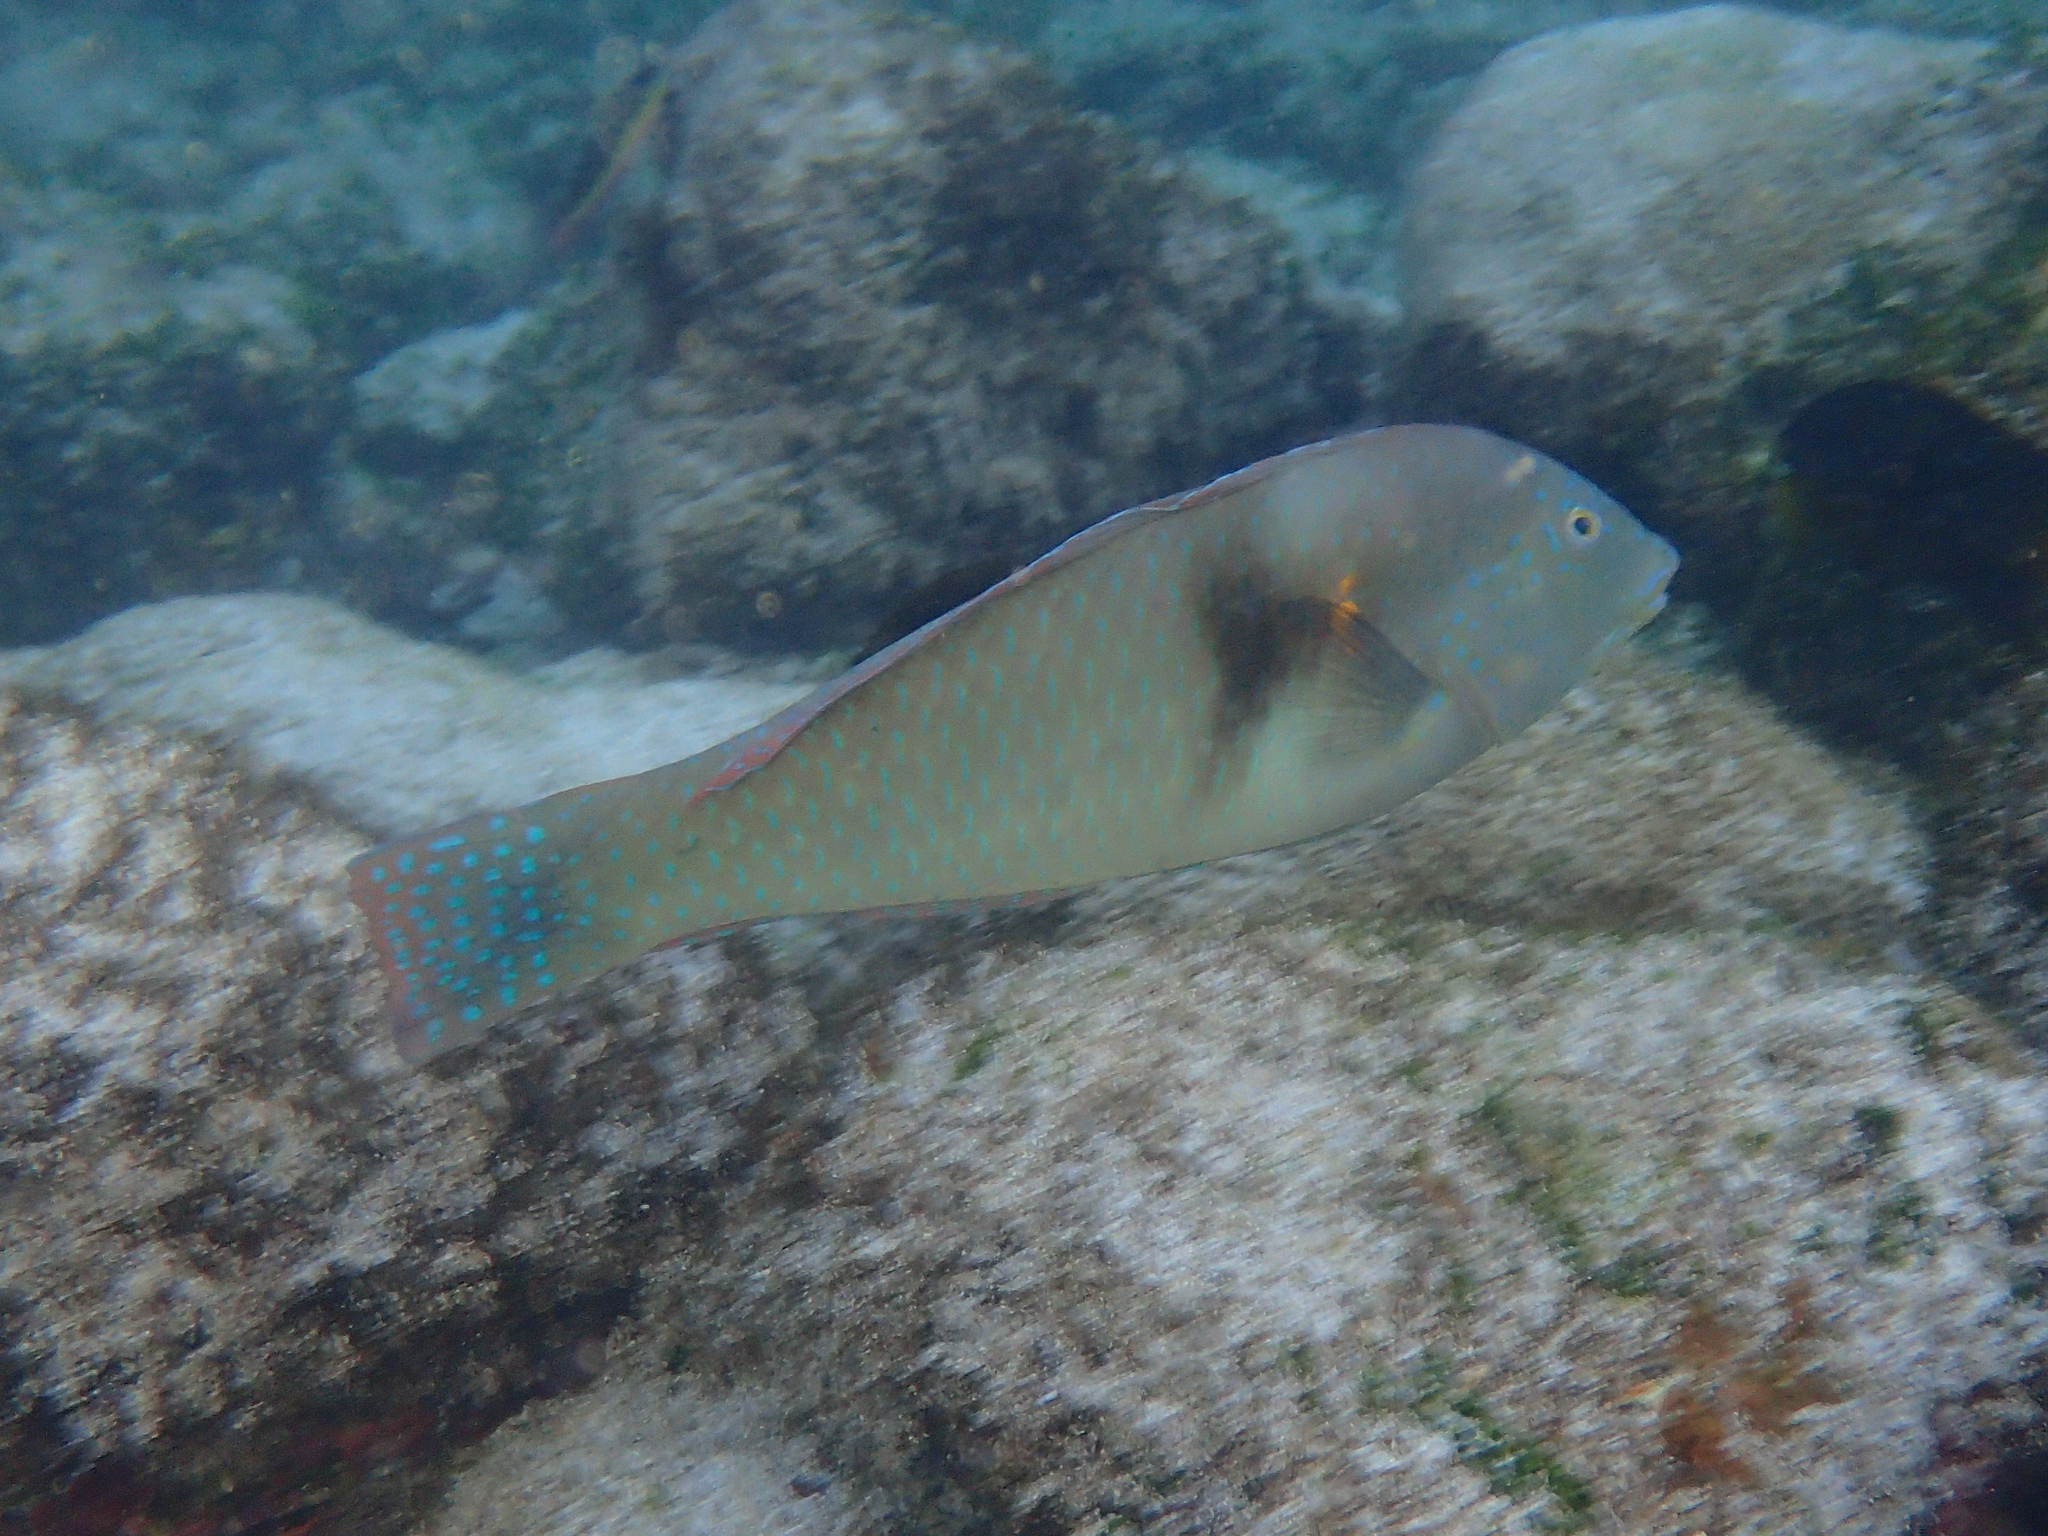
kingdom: Animalia
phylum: Chordata
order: Perciformes
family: Labridae
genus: Halichoeres
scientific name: Halichoeres nicholsi
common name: Spinster wrasse
